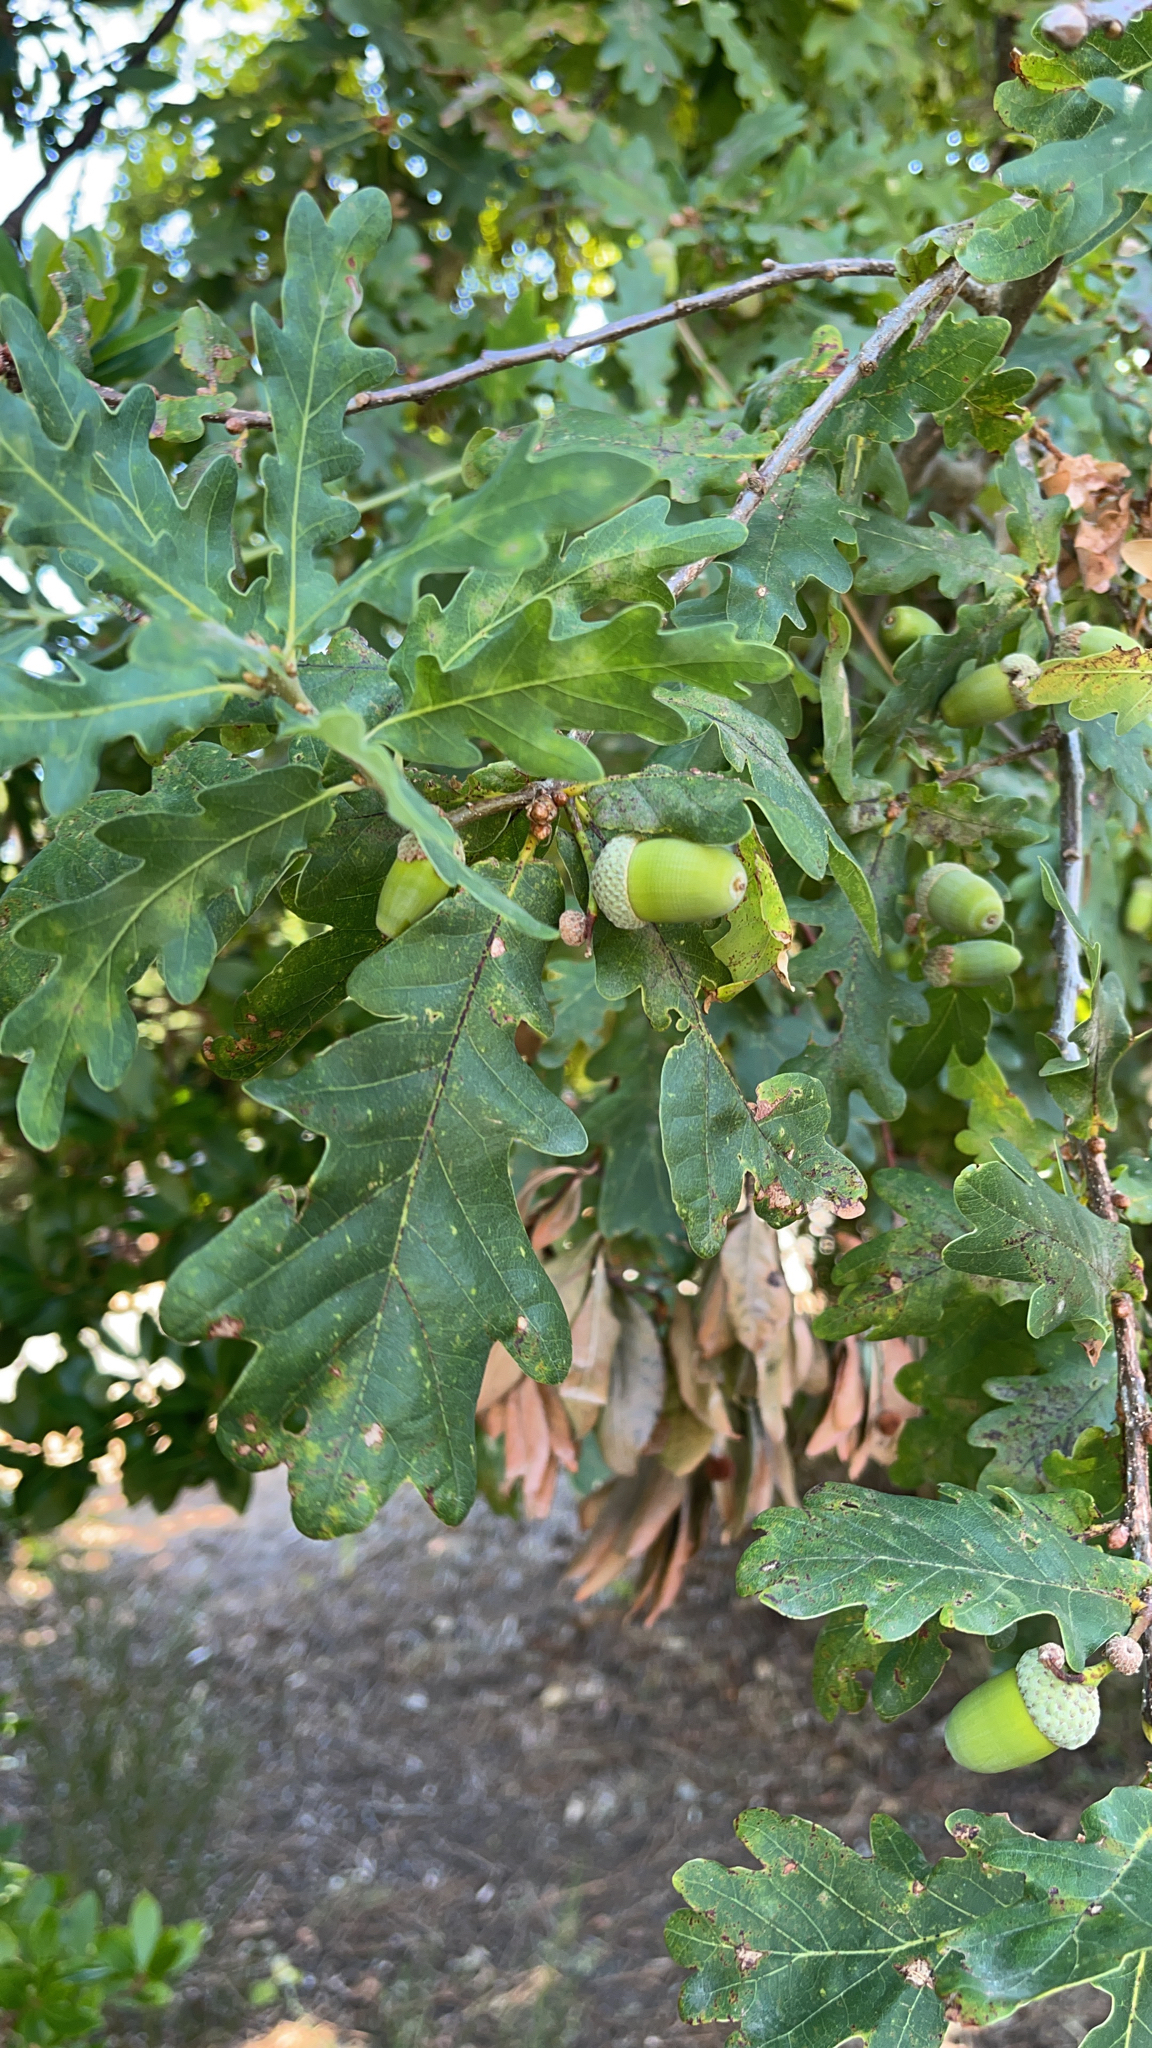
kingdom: Plantae
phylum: Tracheophyta
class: Magnoliopsida
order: Fagales
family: Fagaceae
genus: Quercus
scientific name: Quercus robur
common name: Pedunculate oak
